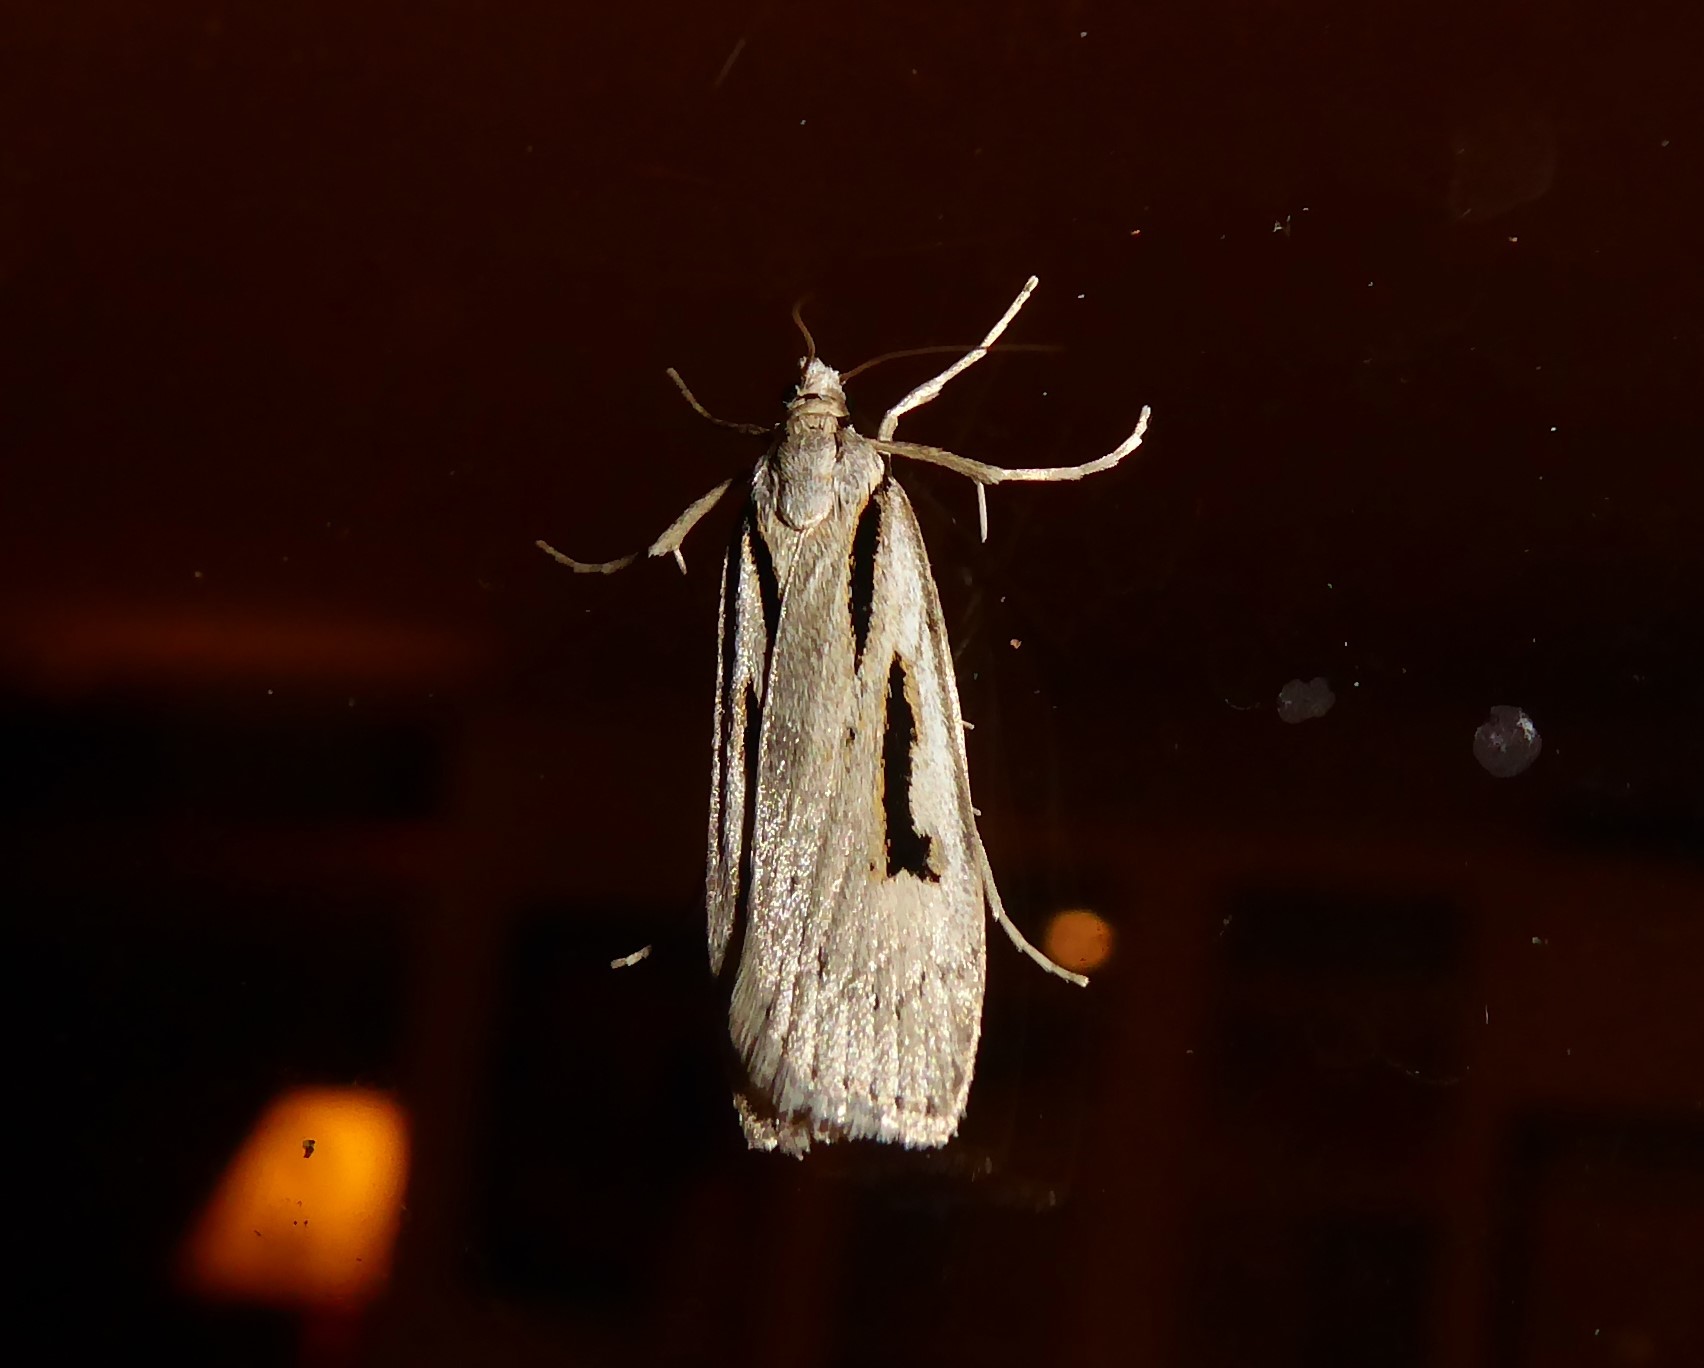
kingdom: Animalia
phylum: Arthropoda
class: Insecta
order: Lepidoptera
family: Crambidae
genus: Scoparia
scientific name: Scoparia rotuellus
